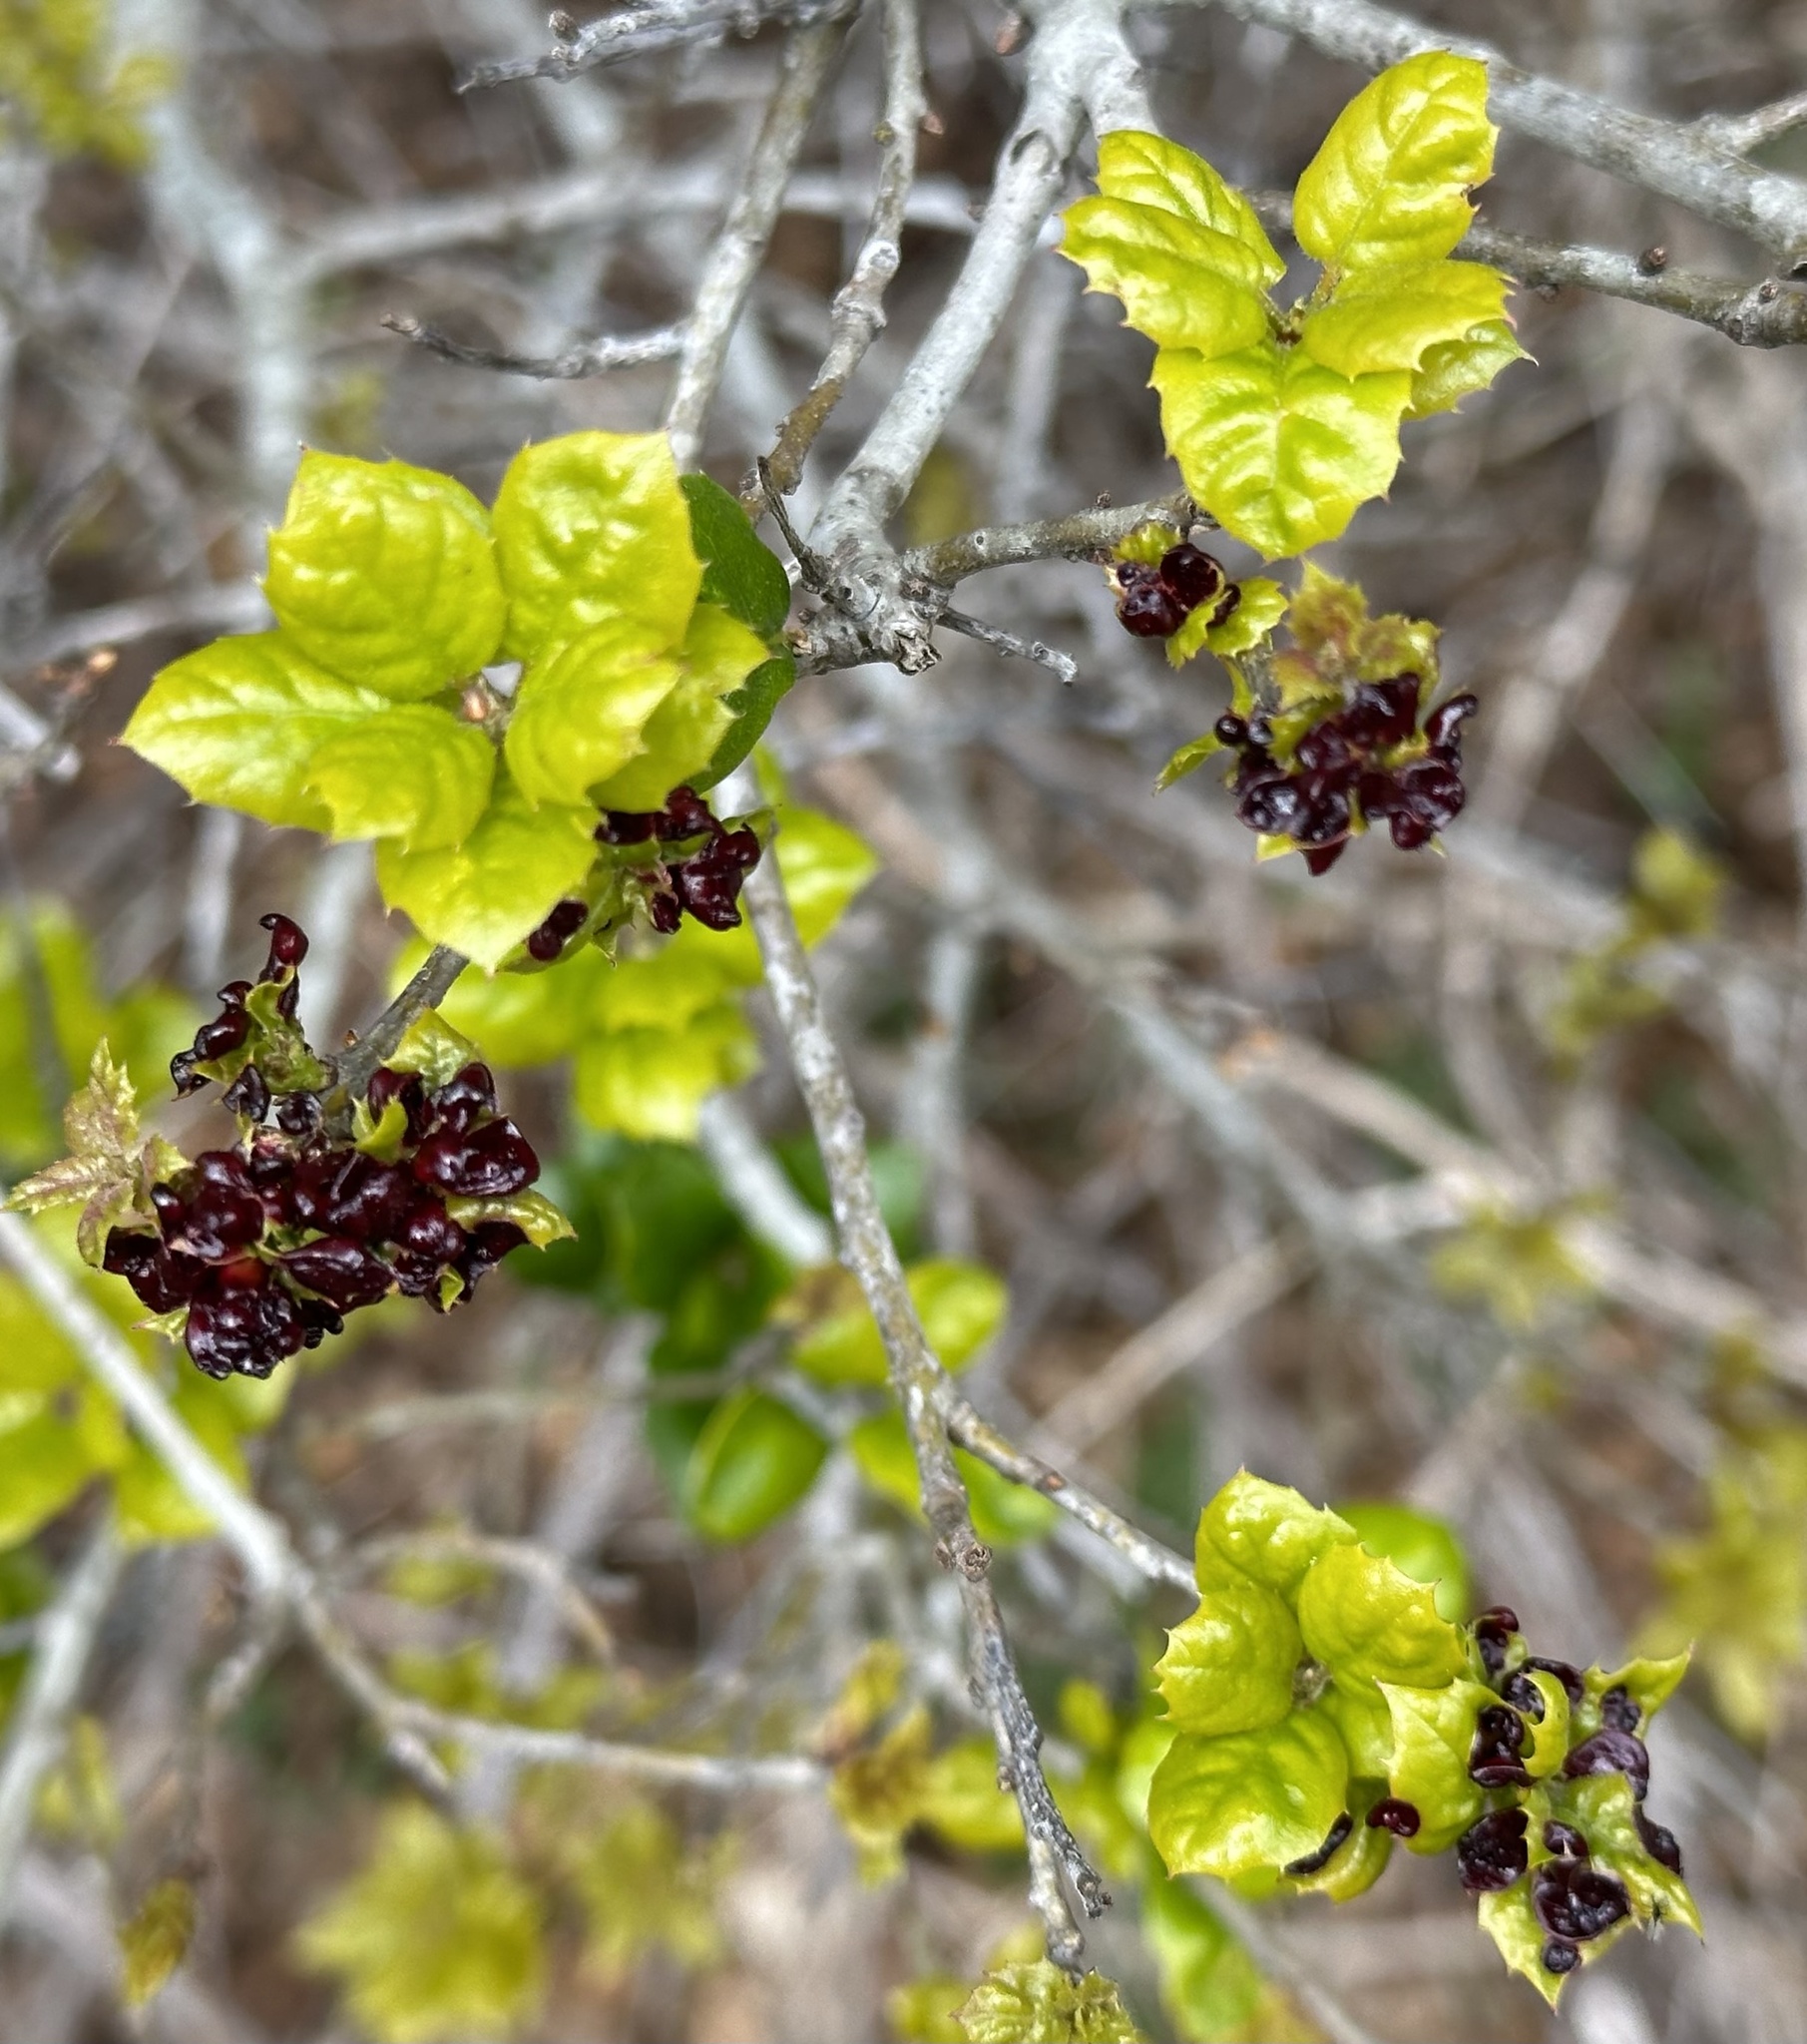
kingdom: Animalia
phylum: Arthropoda
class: Insecta
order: Hymenoptera
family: Cynipidae
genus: Dryocosmus
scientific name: Dryocosmus
